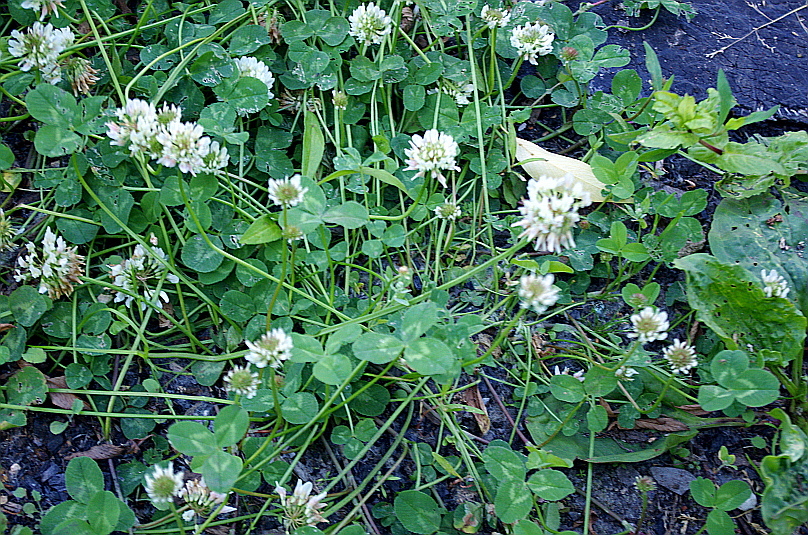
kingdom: Plantae
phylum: Tracheophyta
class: Magnoliopsida
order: Fabales
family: Fabaceae
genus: Trifolium
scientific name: Trifolium repens
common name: White clover
